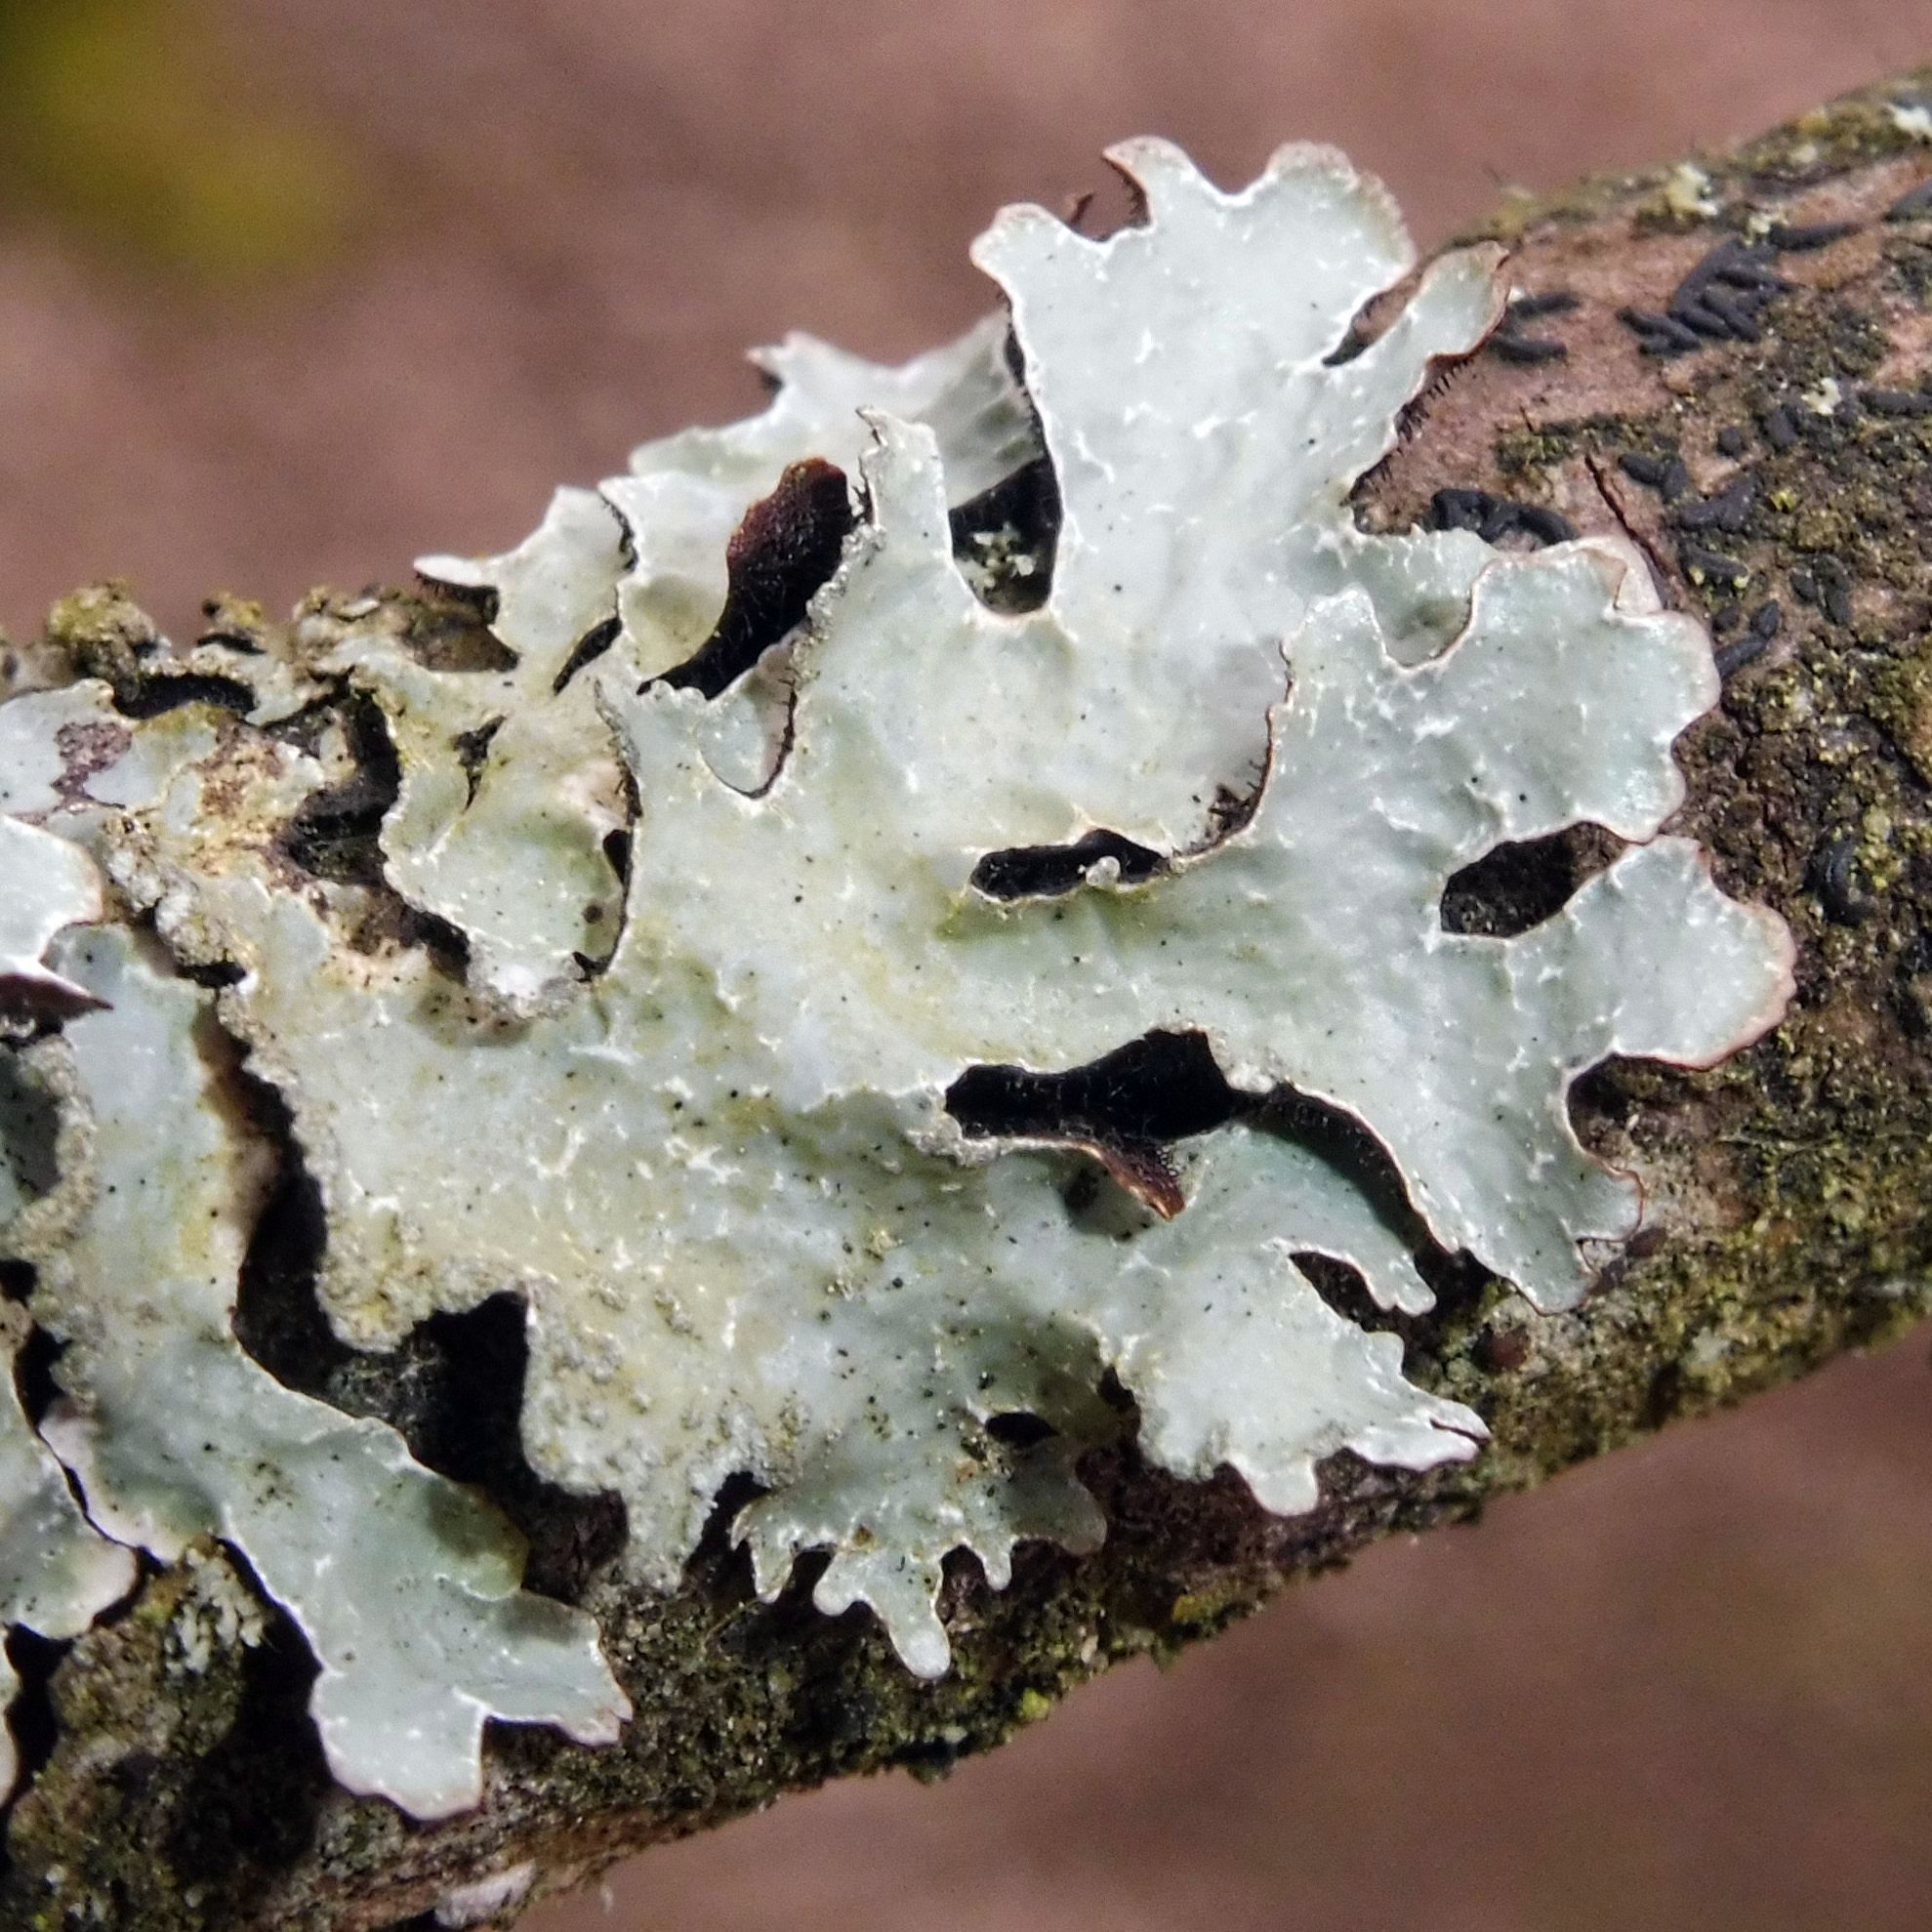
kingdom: Fungi
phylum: Ascomycota
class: Lecanoromycetes
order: Lecanorales
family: Parmeliaceae
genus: Parmelia
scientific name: Parmelia sulcata
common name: Netted shield lichen
